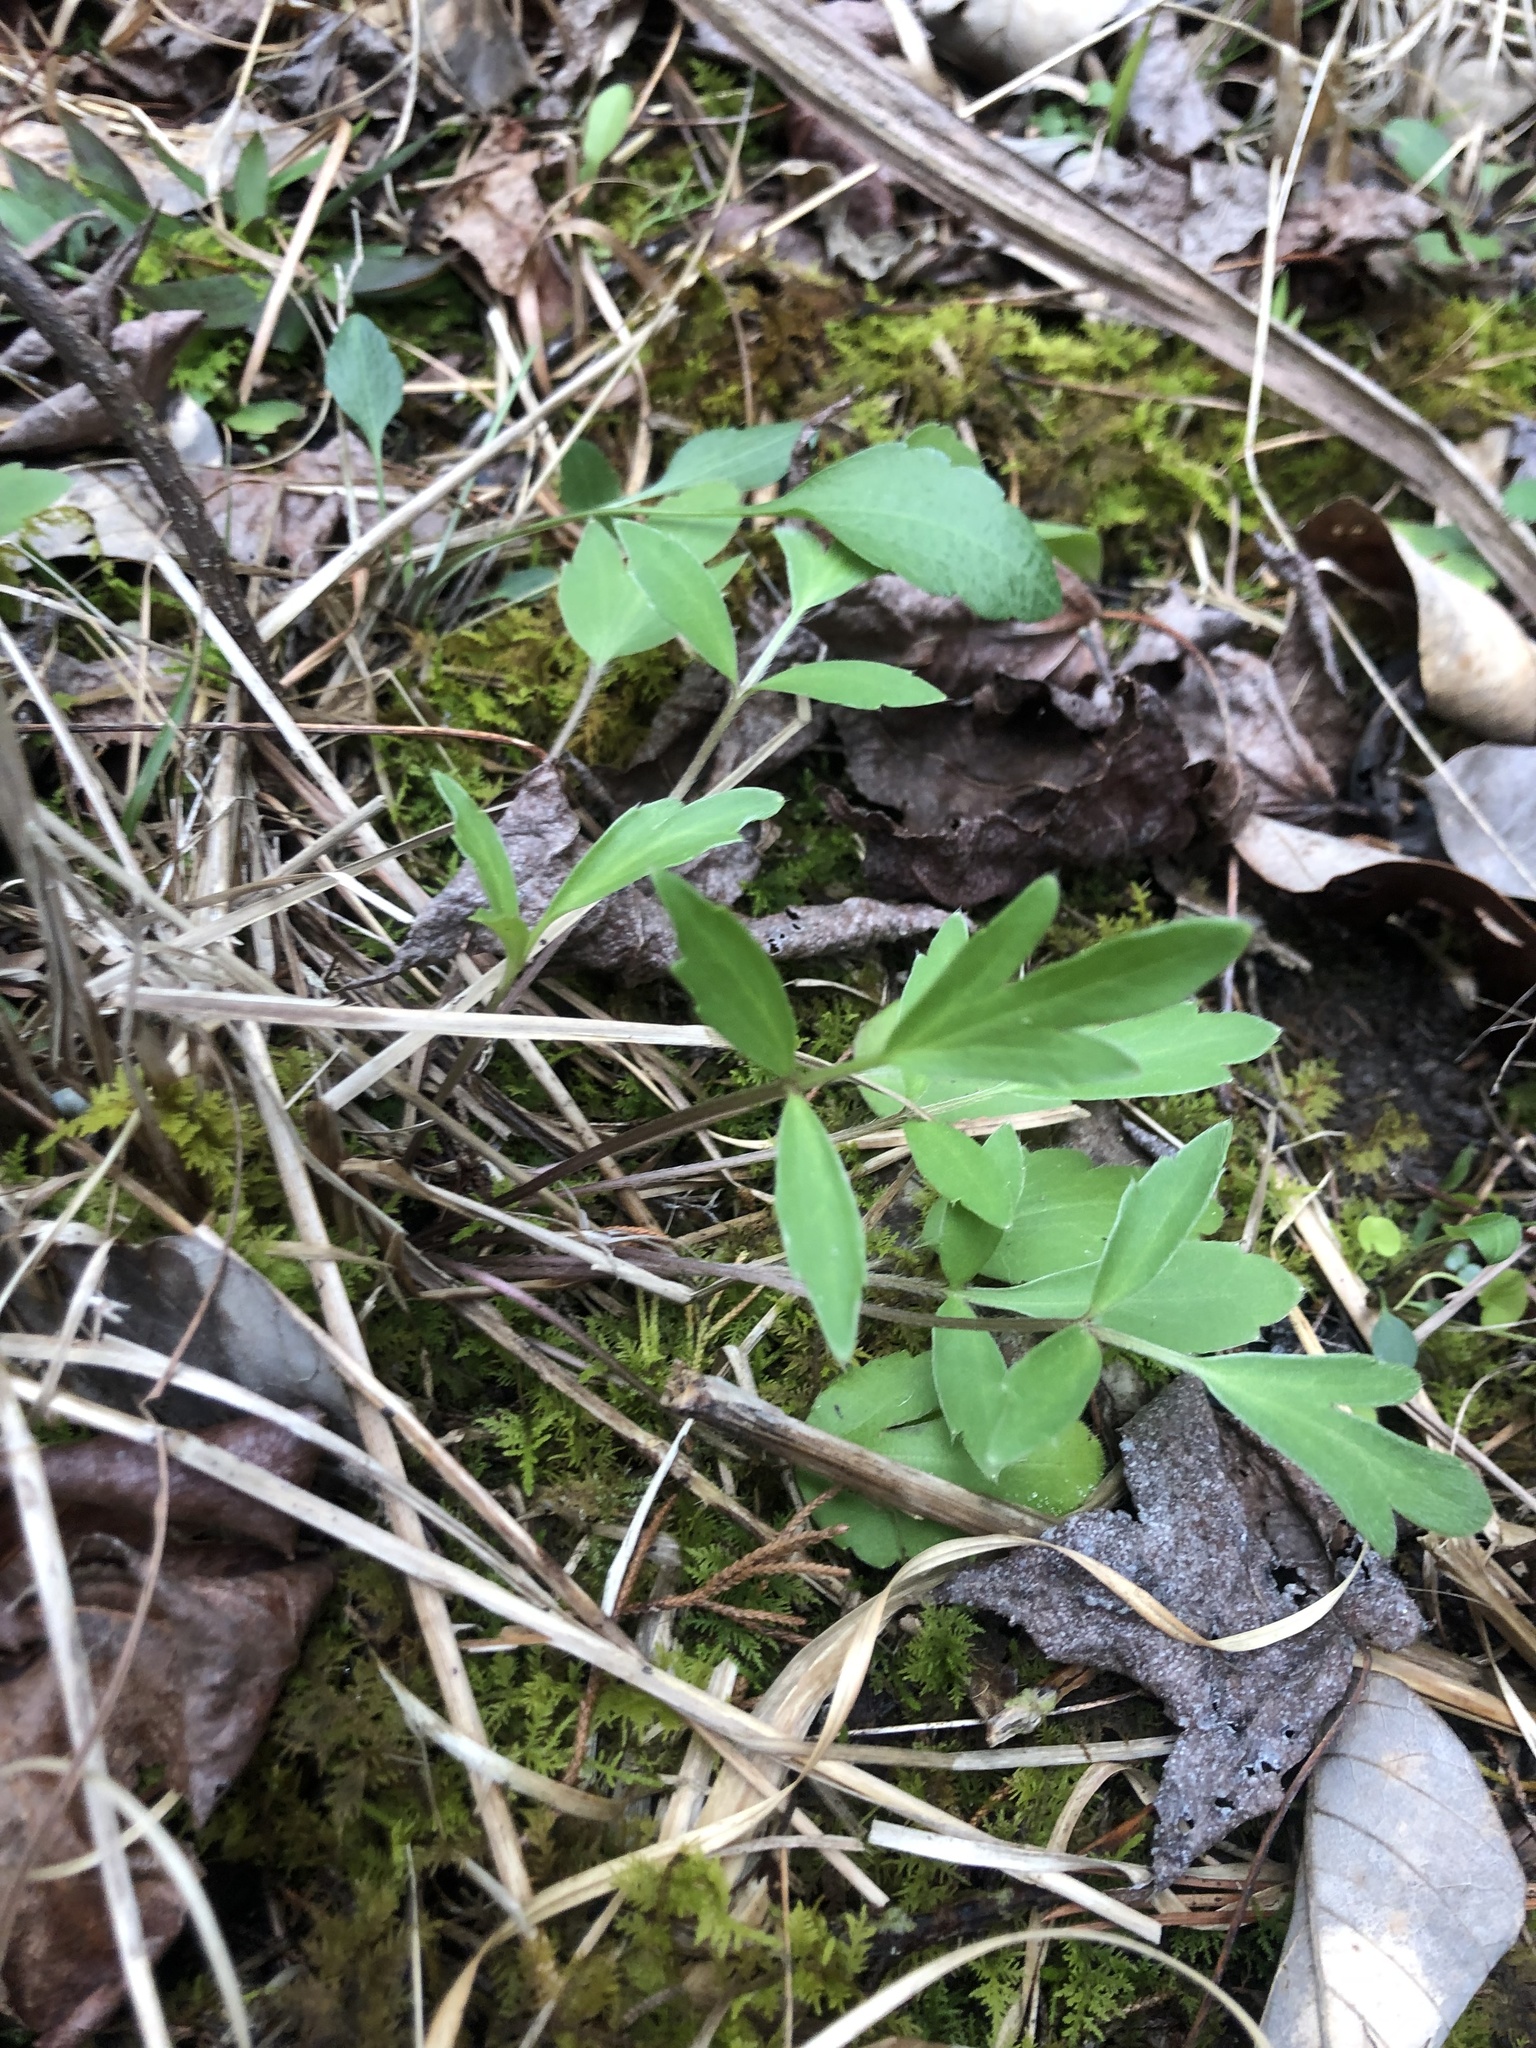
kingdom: Plantae
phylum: Tracheophyta
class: Magnoliopsida
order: Ranunculales
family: Ranunculaceae
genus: Ranunculus
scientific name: Ranunculus fascicularis
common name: Early buttercup
